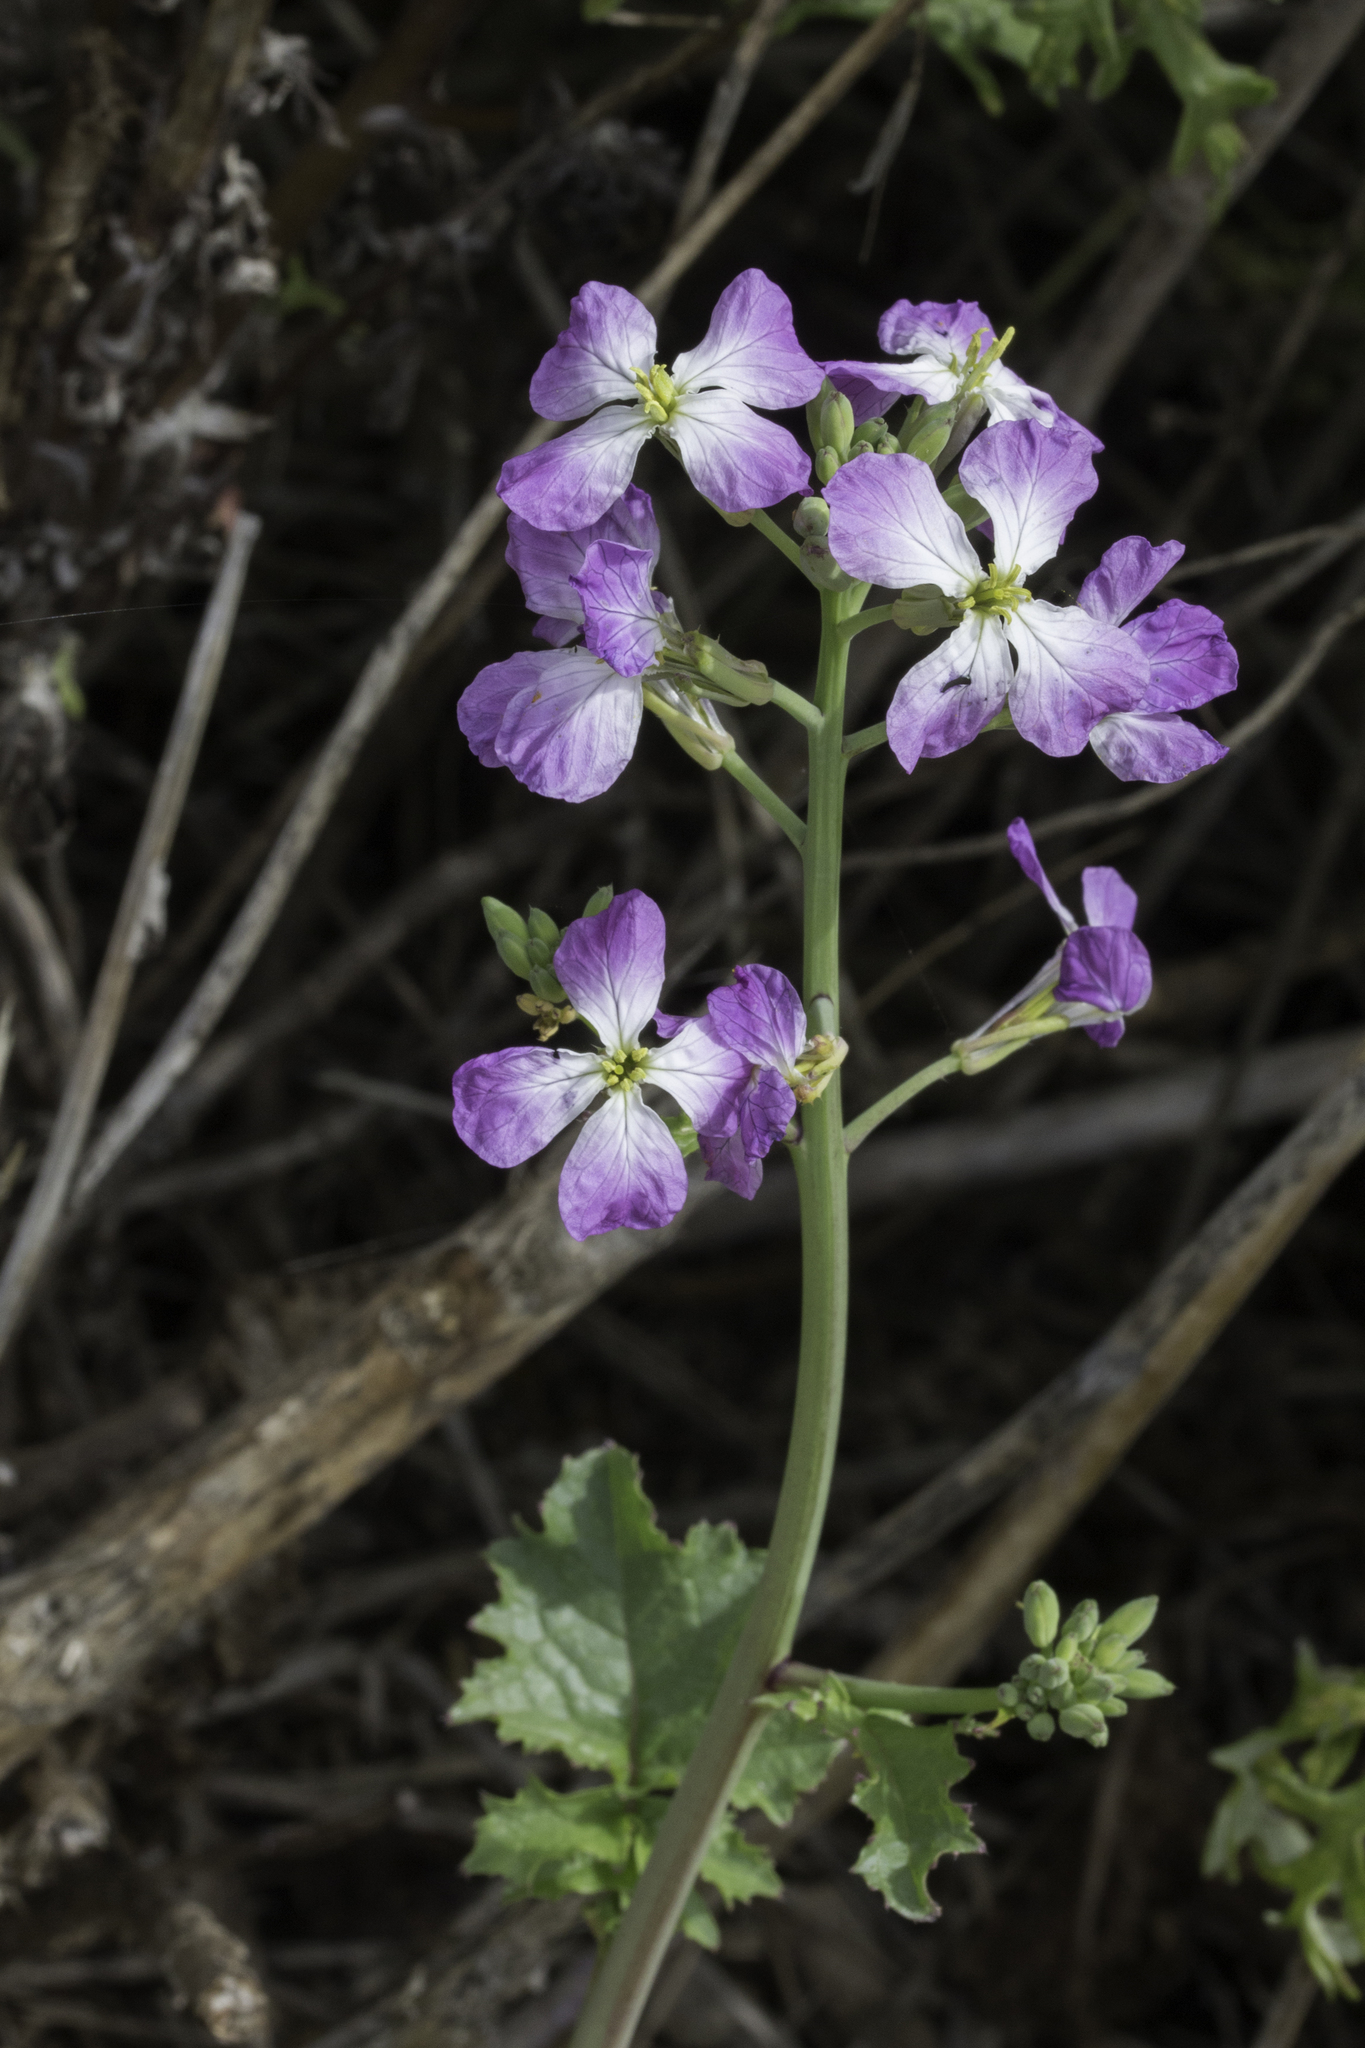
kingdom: Plantae
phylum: Tracheophyta
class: Magnoliopsida
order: Brassicales
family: Brassicaceae
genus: Raphanus
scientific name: Raphanus sativus
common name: Cultivated radish
